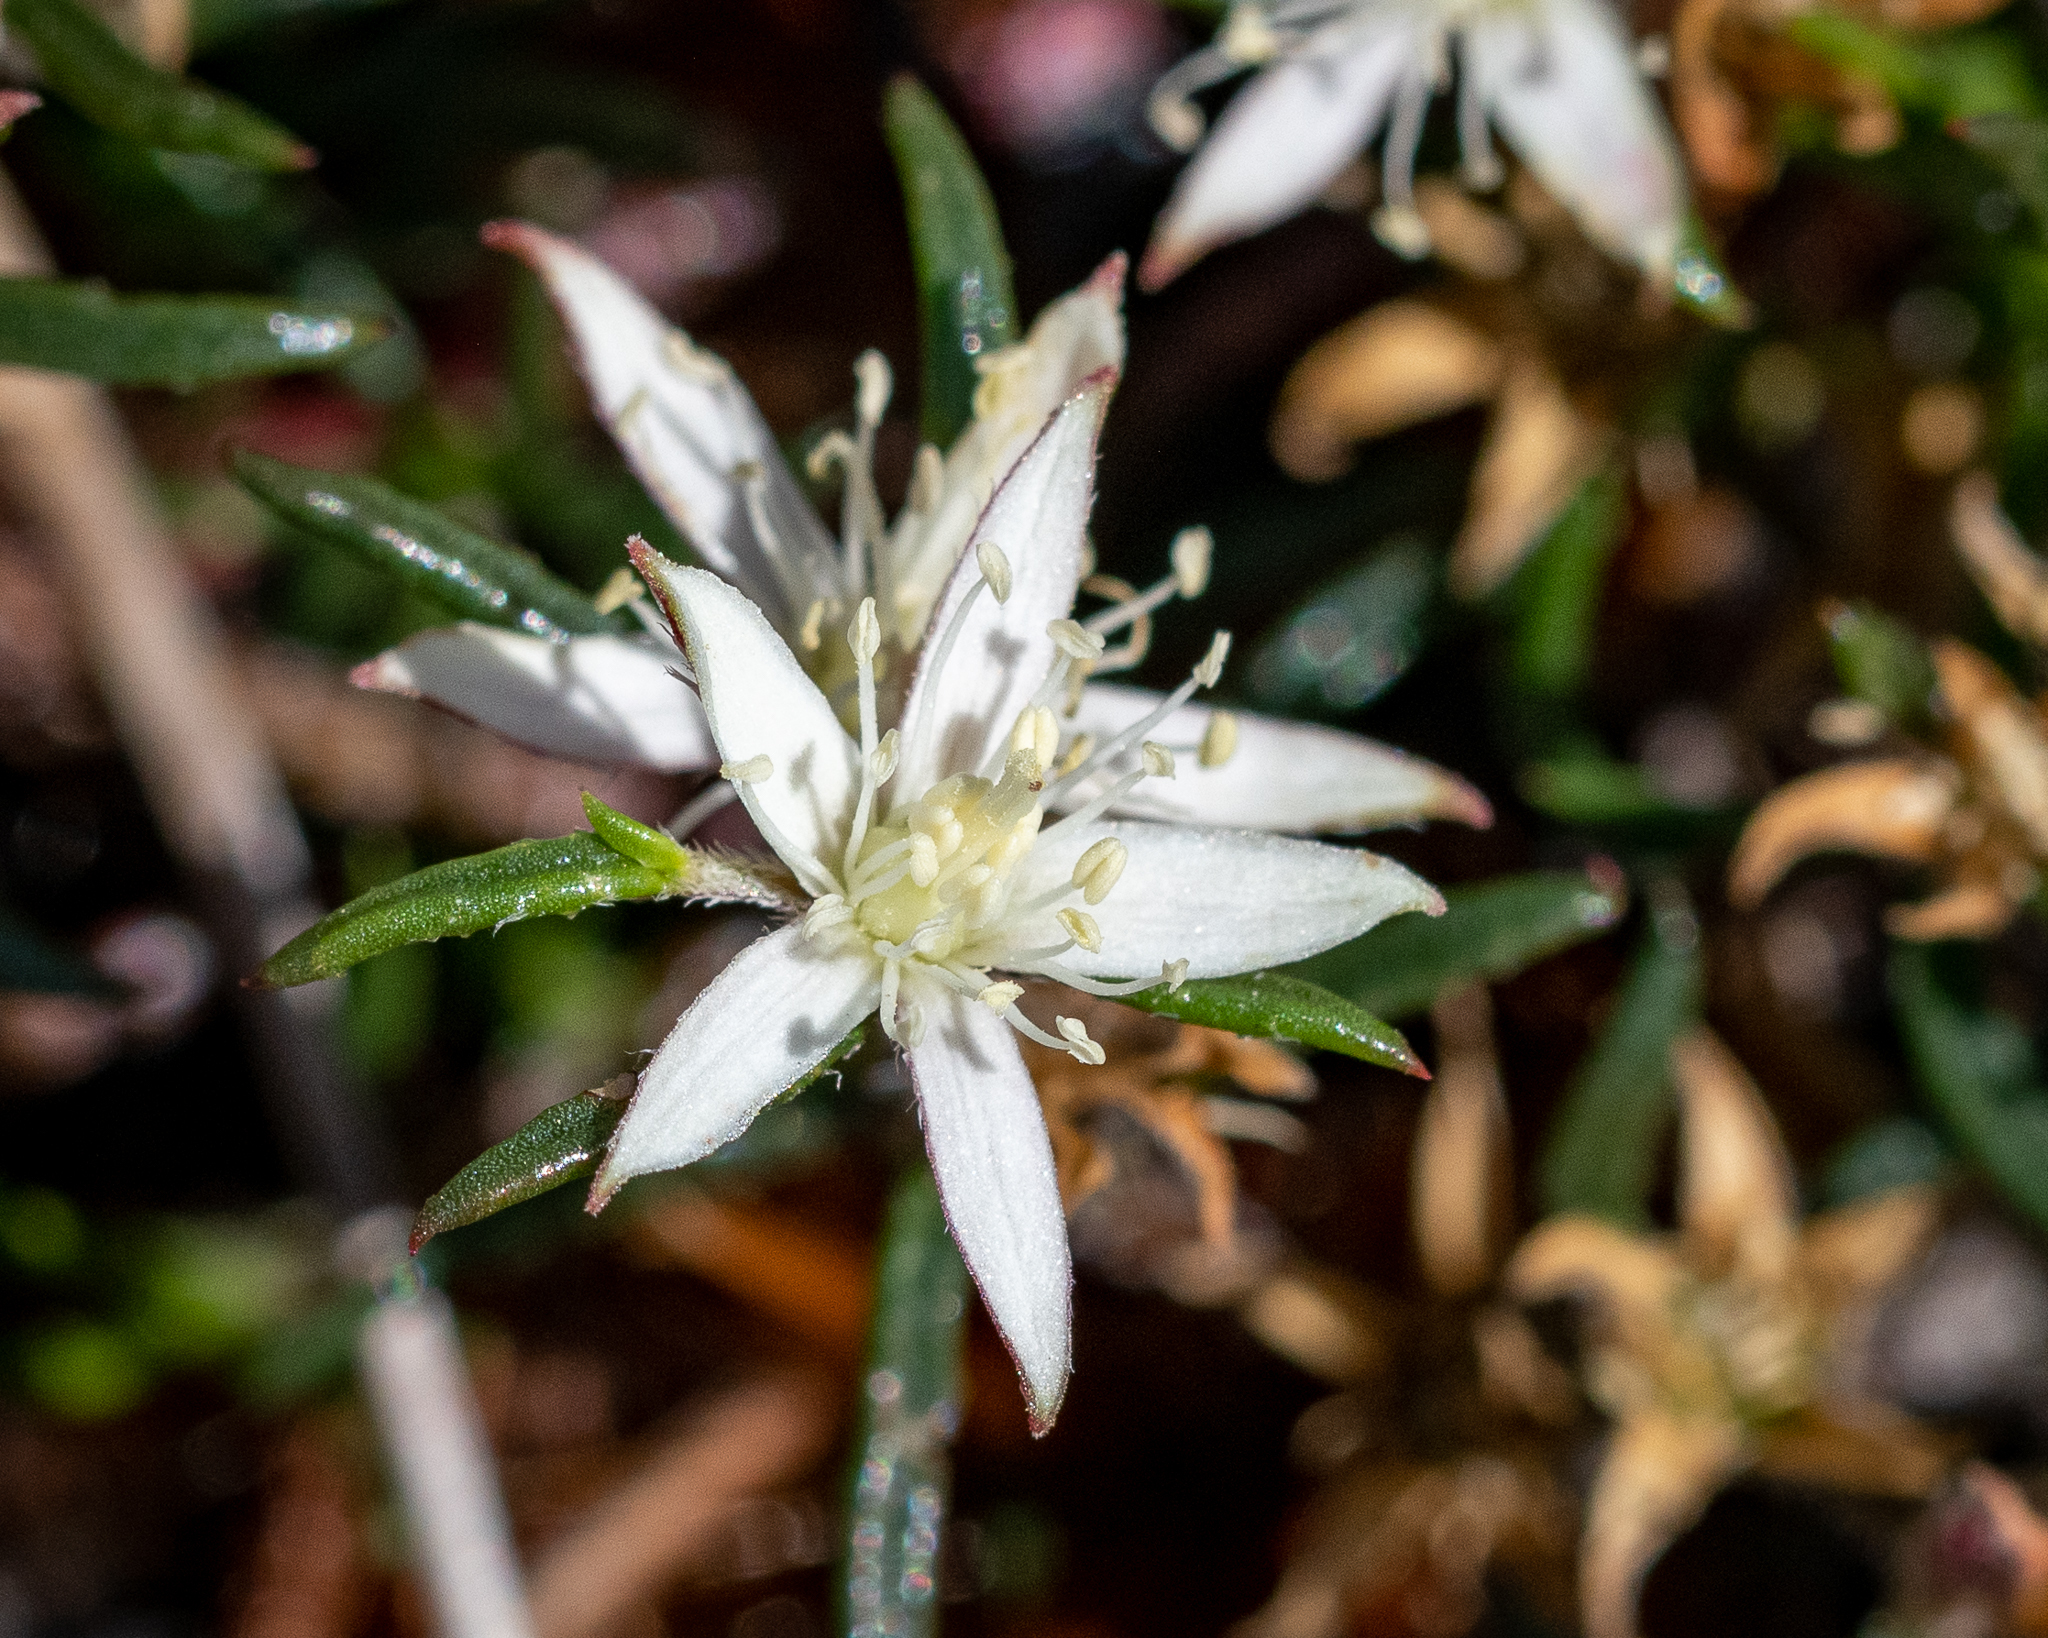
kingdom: Plantae
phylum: Tracheophyta
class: Magnoliopsida
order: Caryophyllales
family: Aizoaceae
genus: Aizoon
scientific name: Aizoon sarmentosum
